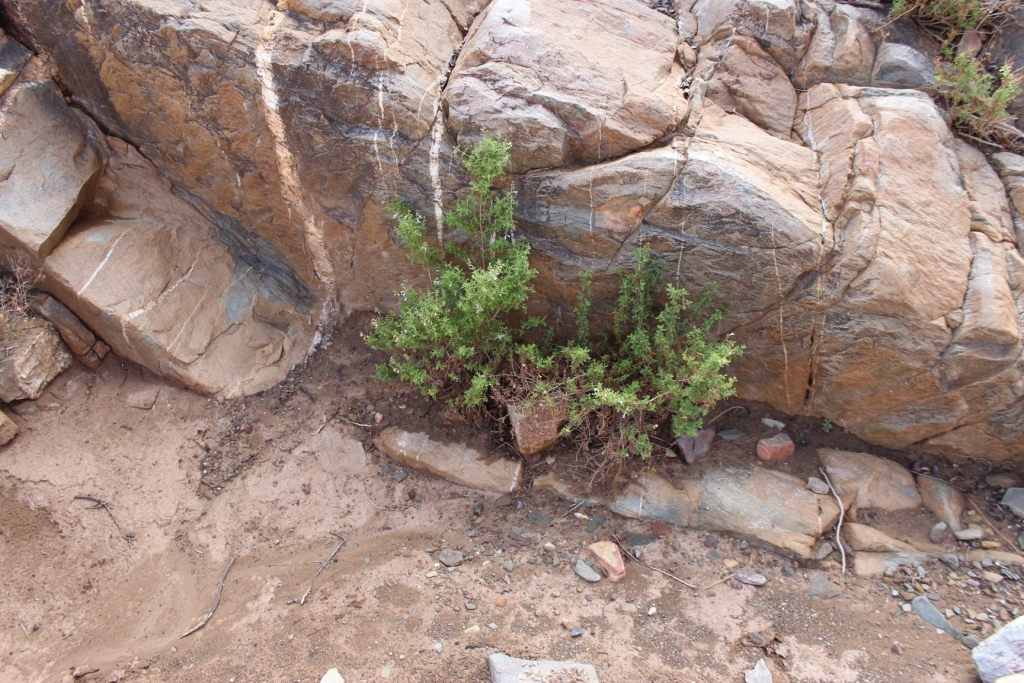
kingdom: Plantae
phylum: Tracheophyta
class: Magnoliopsida
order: Lamiales
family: Lamiaceae
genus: Salvia
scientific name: Salvia namaensis
